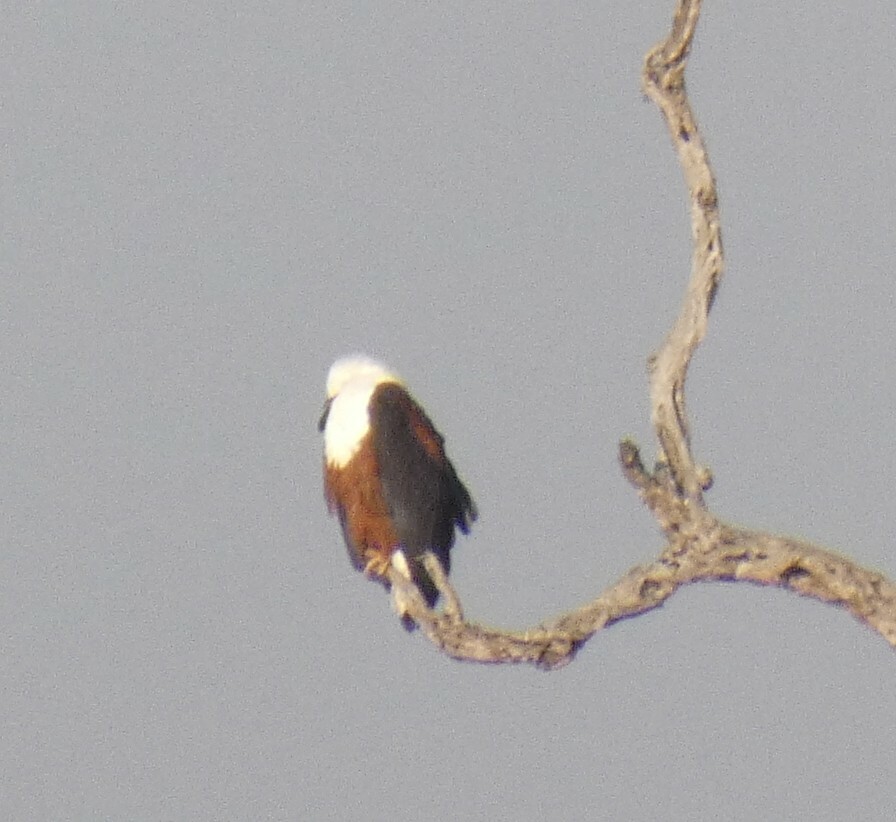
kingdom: Animalia
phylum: Chordata
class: Aves
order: Accipitriformes
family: Accipitridae
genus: Haliaeetus
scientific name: Haliaeetus vocifer
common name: African fish eagle
